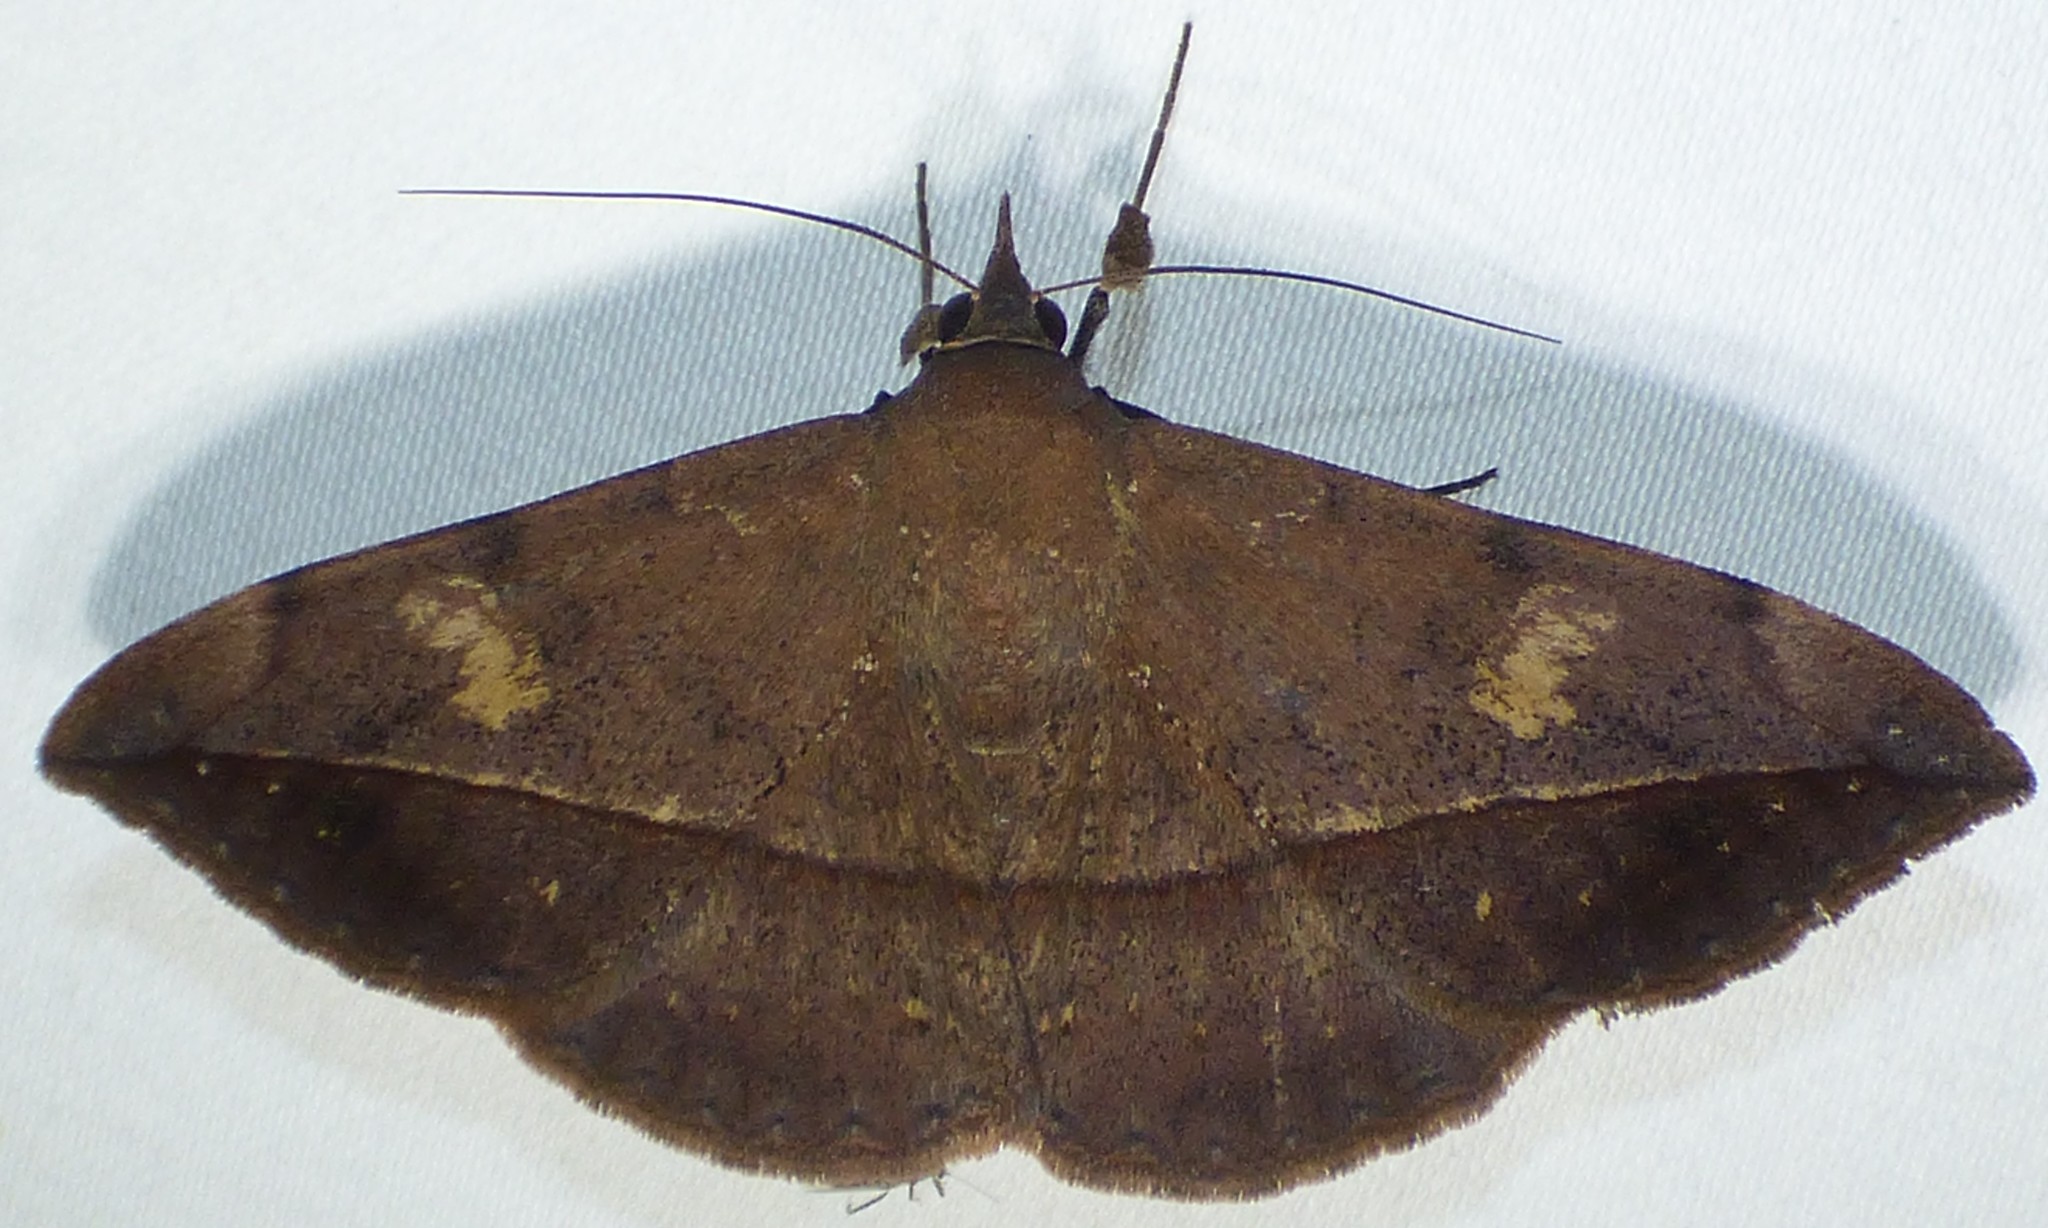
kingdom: Animalia
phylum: Arthropoda
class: Insecta
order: Lepidoptera
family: Erebidae
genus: Anticarsia
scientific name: Anticarsia gemmatalis
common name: Cutworm moth
